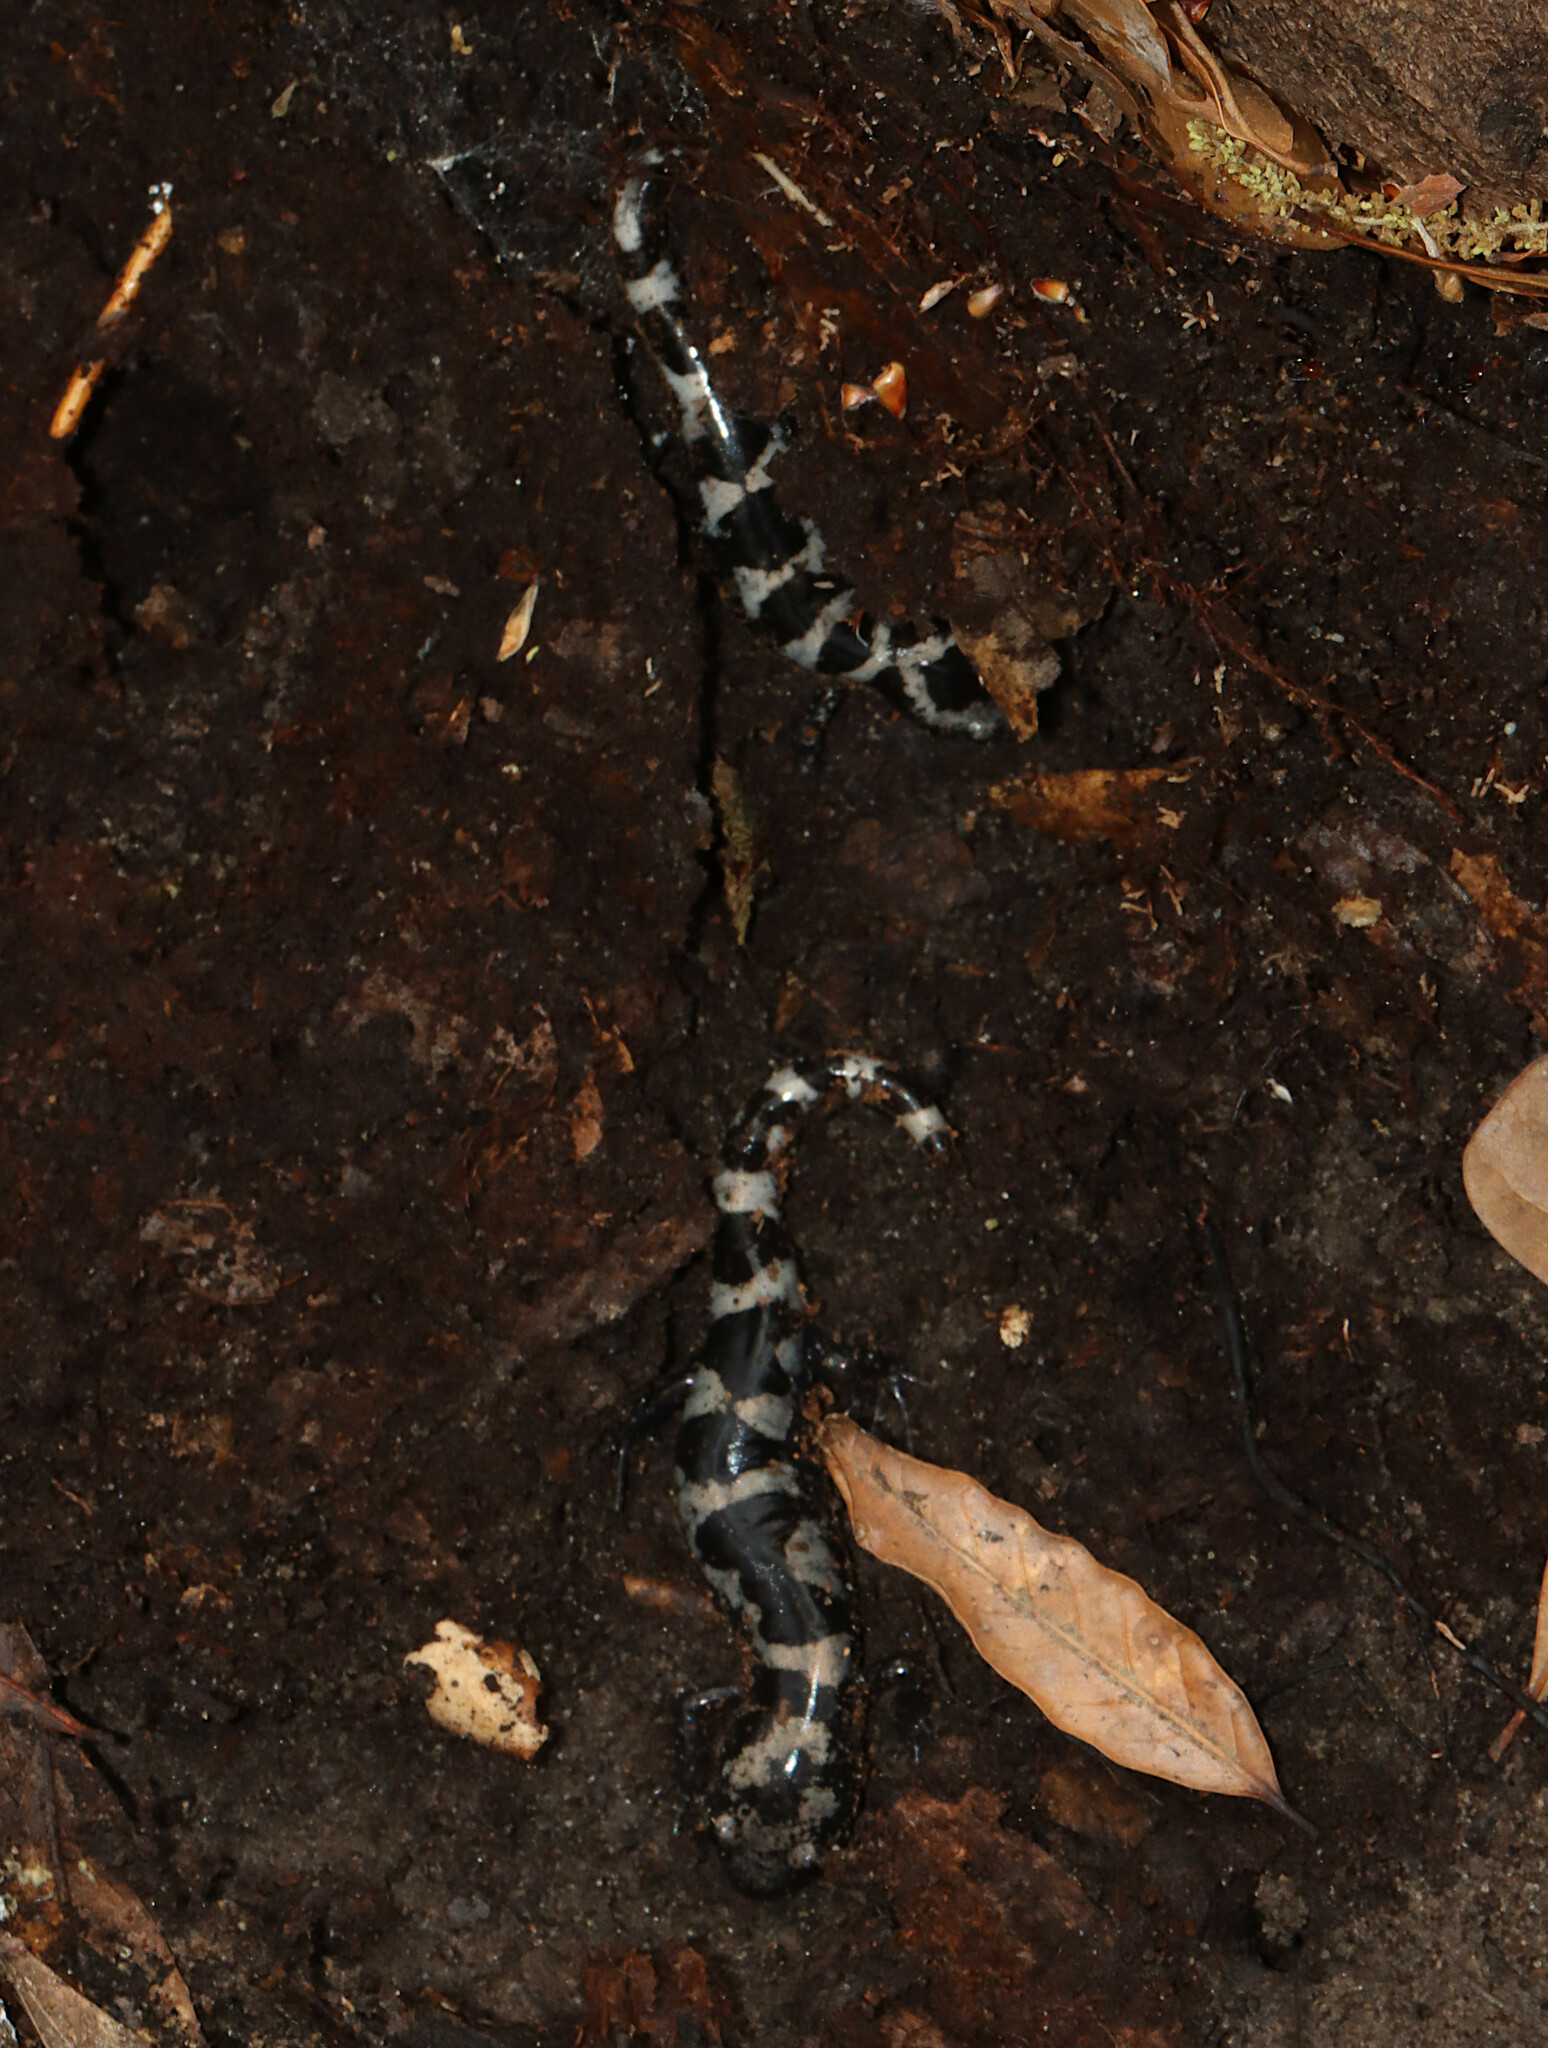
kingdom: Animalia
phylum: Chordata
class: Amphibia
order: Caudata
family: Ambystomatidae
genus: Ambystoma
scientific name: Ambystoma opacum
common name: Marbled salamander
